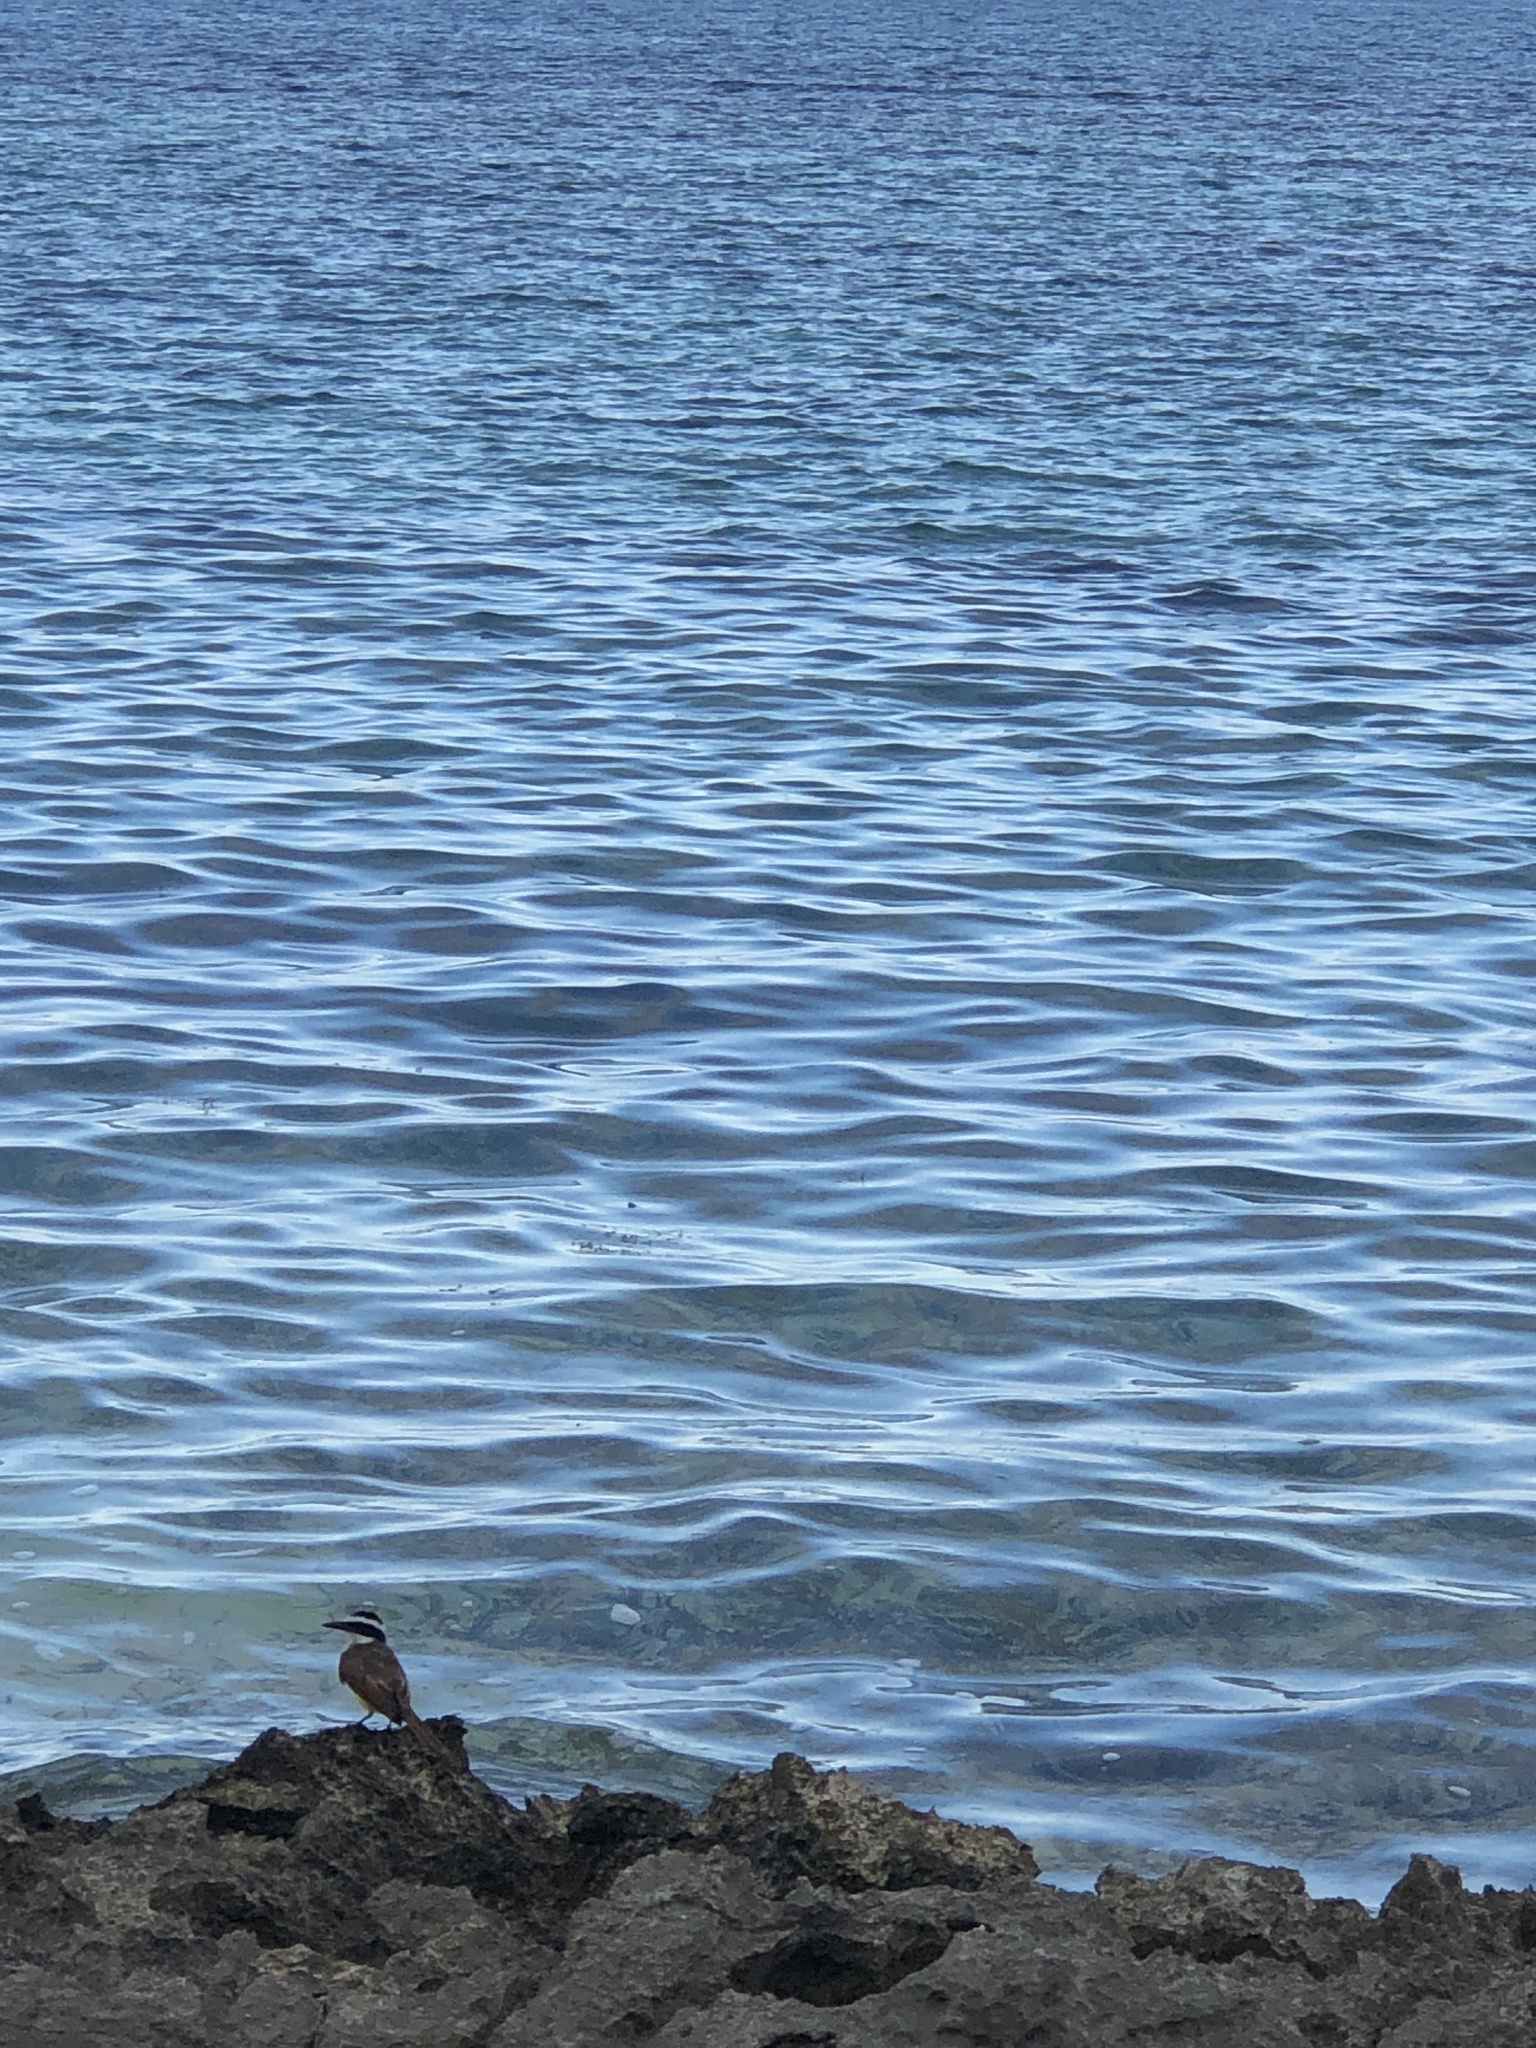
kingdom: Animalia
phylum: Chordata
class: Aves
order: Passeriformes
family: Tyrannidae
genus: Pitangus
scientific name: Pitangus sulphuratus
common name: Great kiskadee
